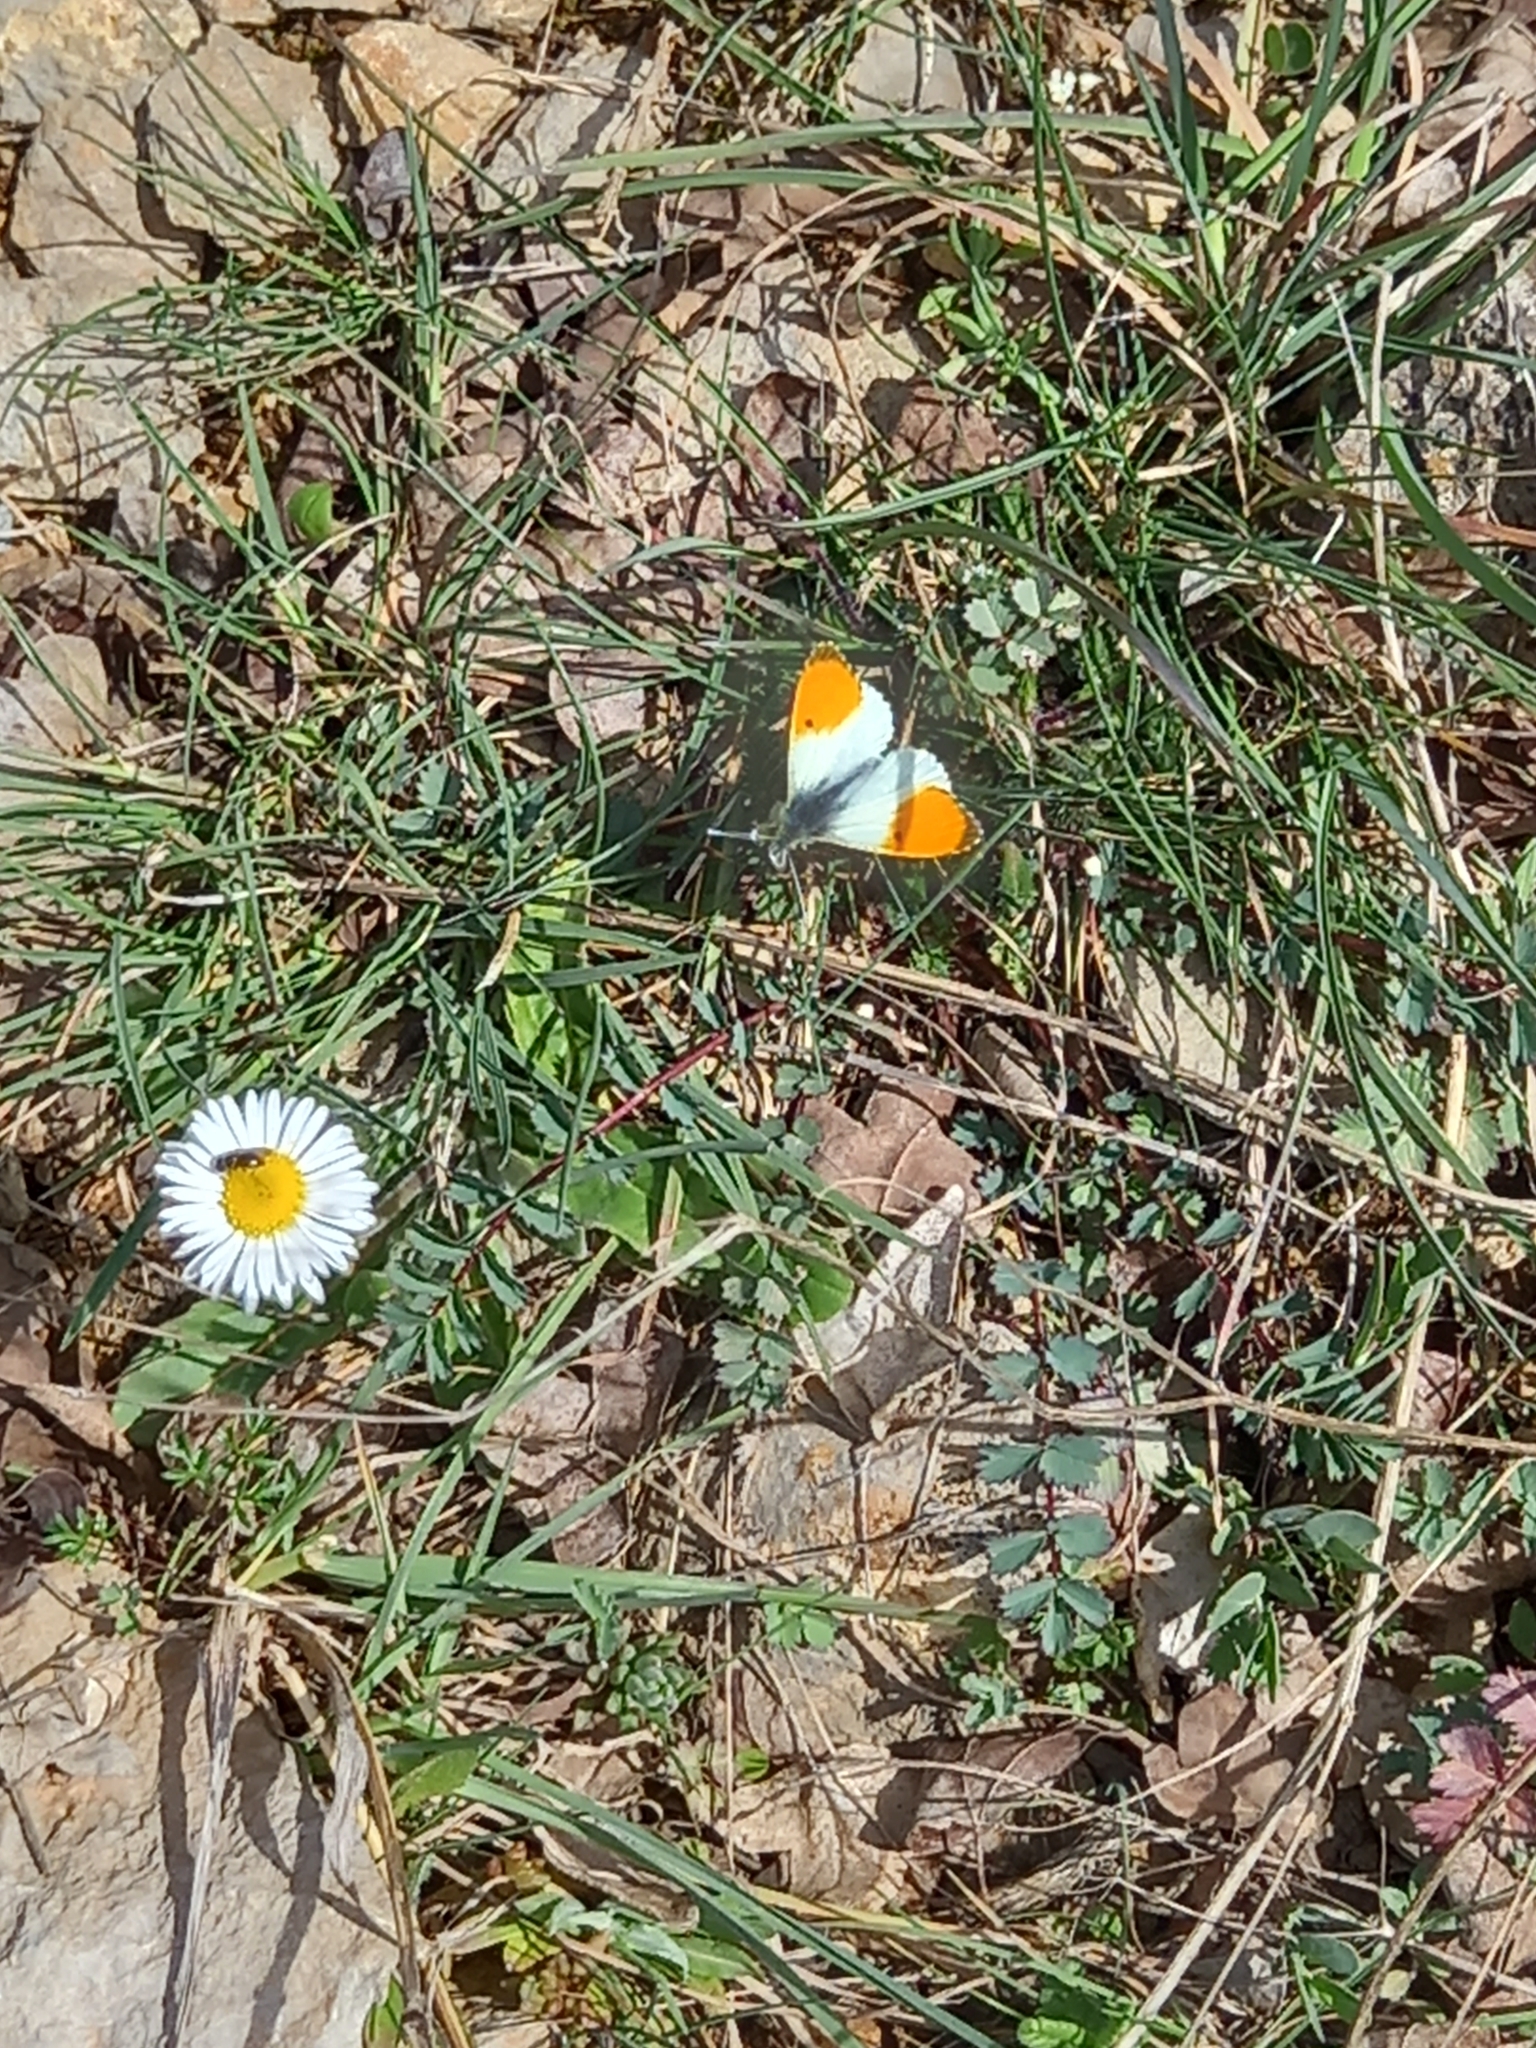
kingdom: Animalia
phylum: Arthropoda
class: Insecta
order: Lepidoptera
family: Pieridae
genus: Anthocharis
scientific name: Anthocharis cardamines
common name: Orange-tip
